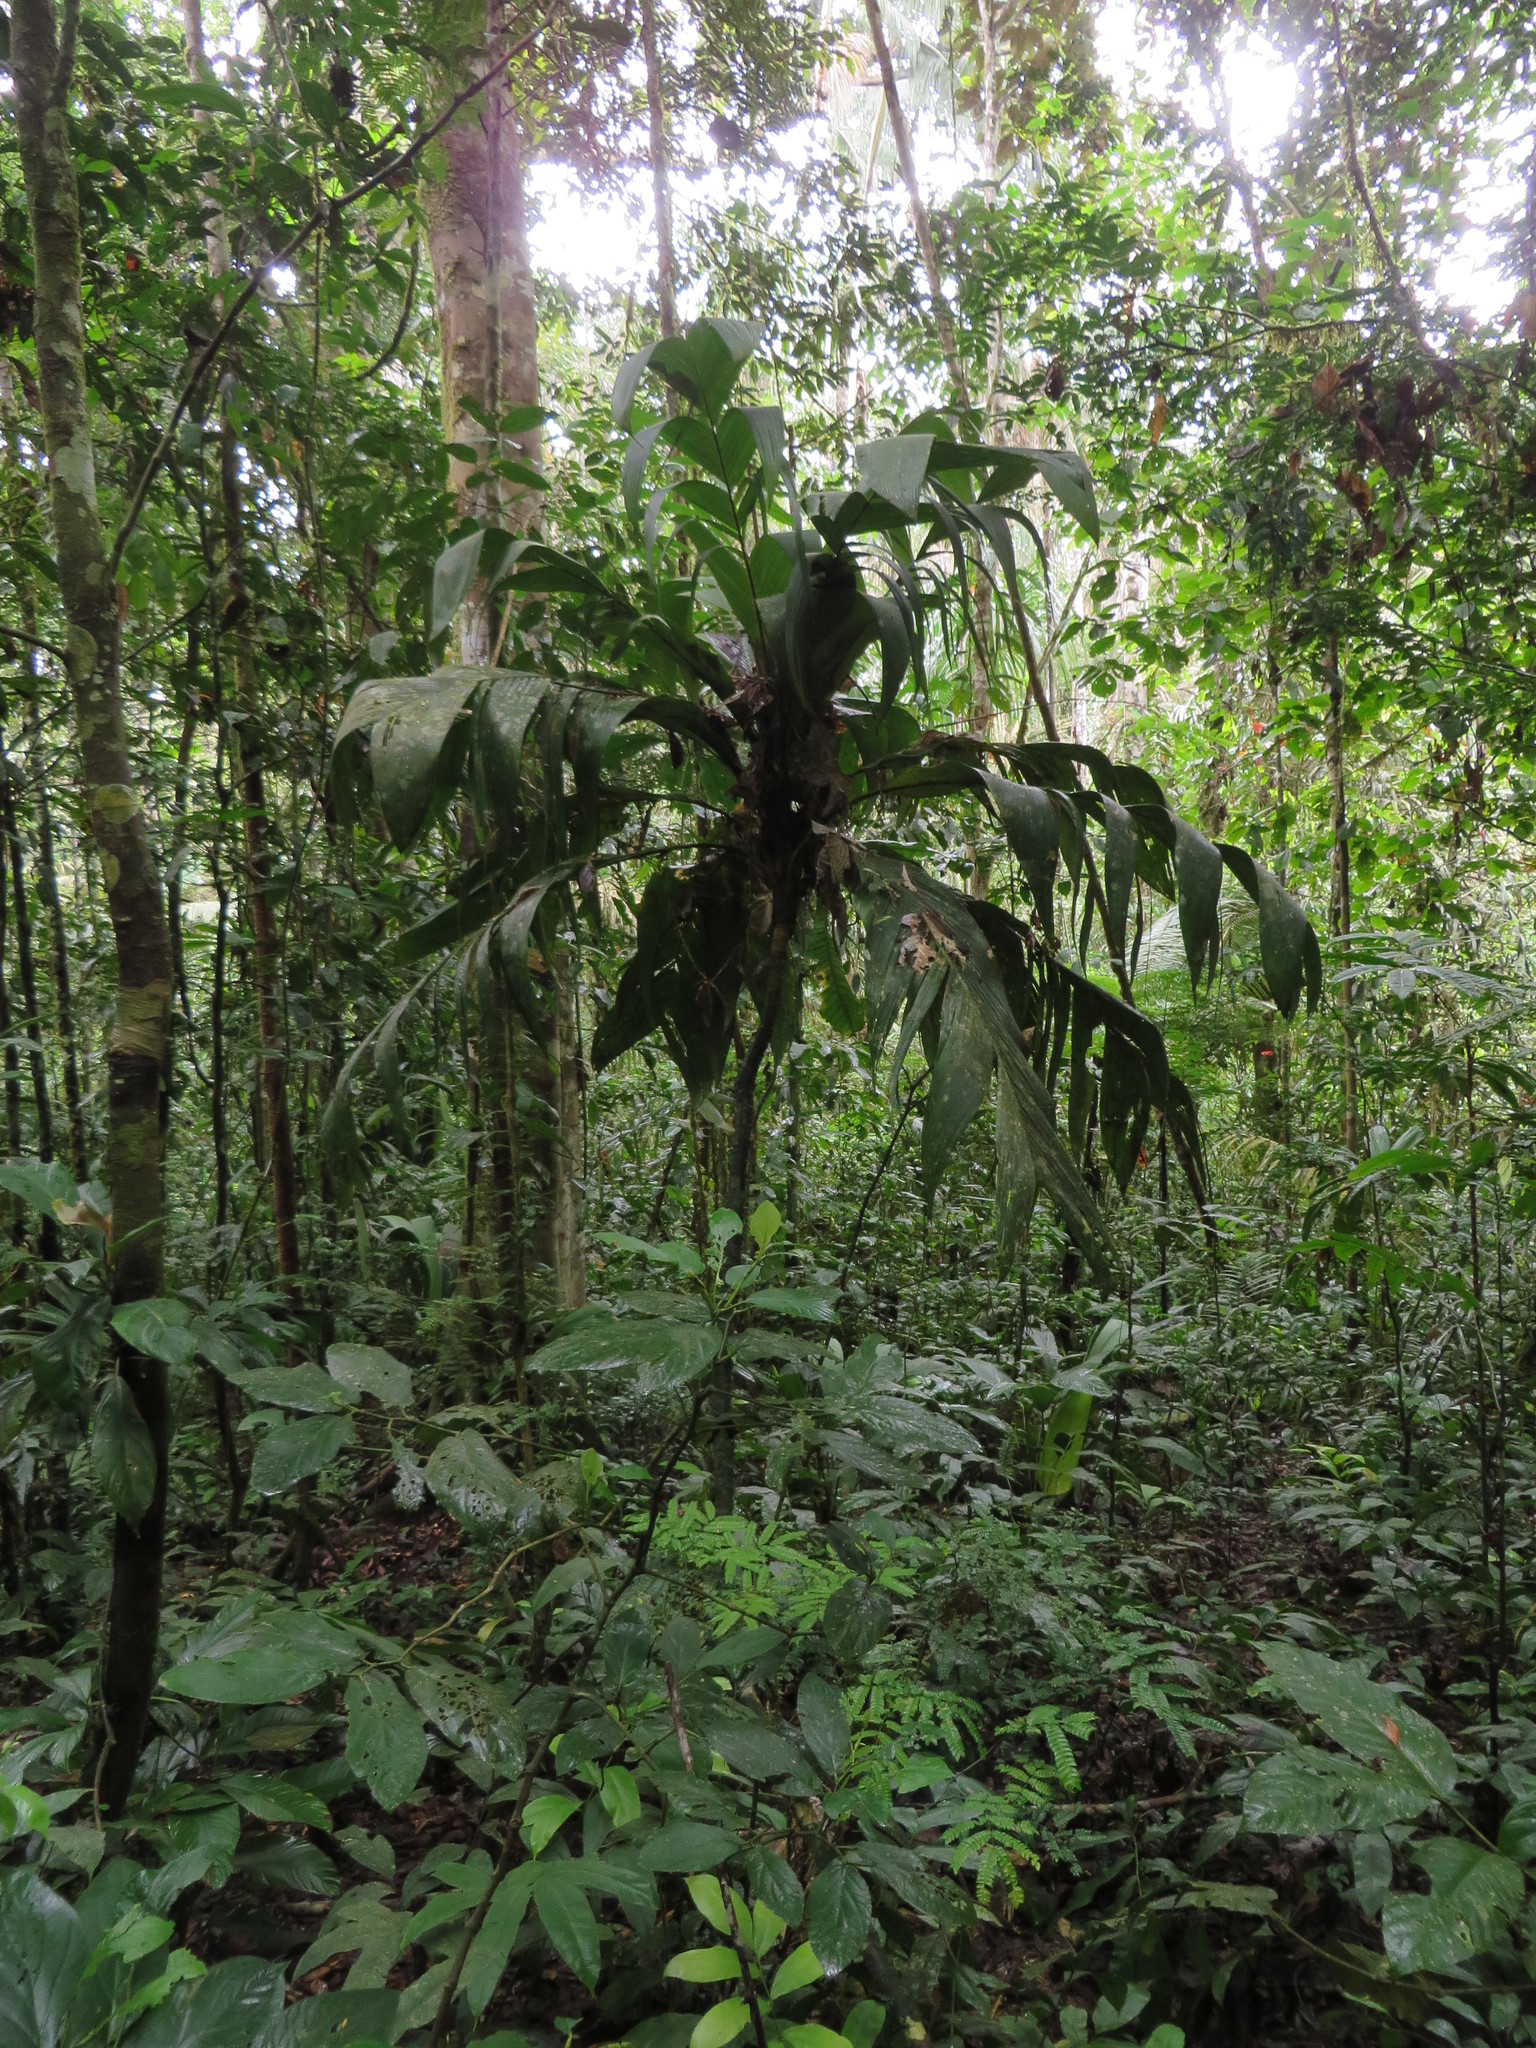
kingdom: Plantae
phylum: Tracheophyta
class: Liliopsida
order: Arecales
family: Arecaceae
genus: Geonoma
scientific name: Geonoma triglochin
